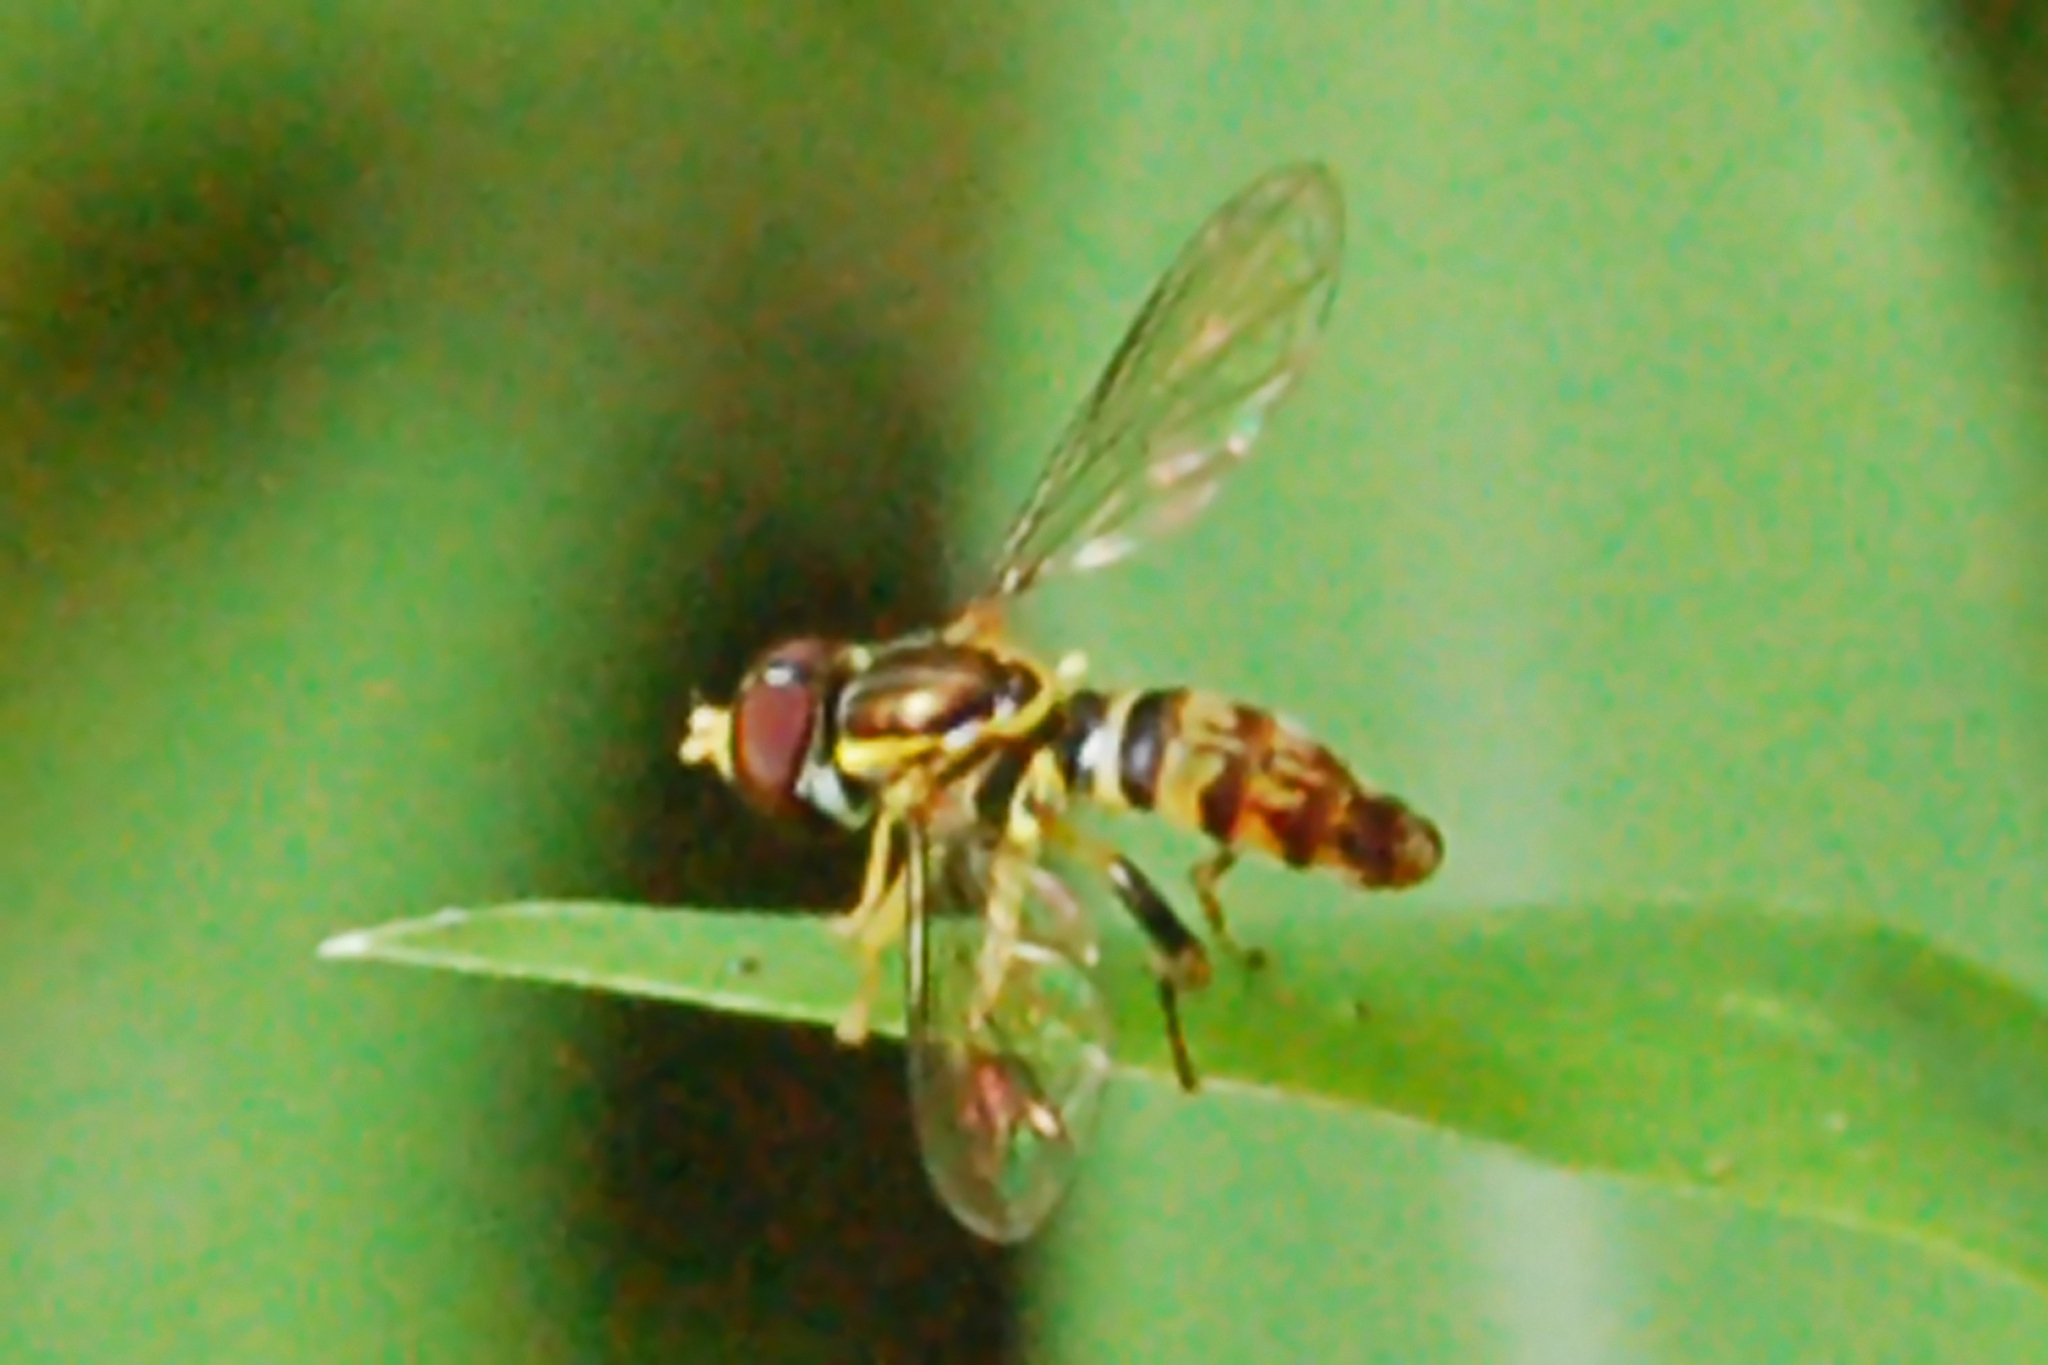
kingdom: Animalia
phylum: Arthropoda
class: Insecta
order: Diptera
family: Syrphidae
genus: Toxomerus
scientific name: Toxomerus geminatus
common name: Eastern calligrapher
